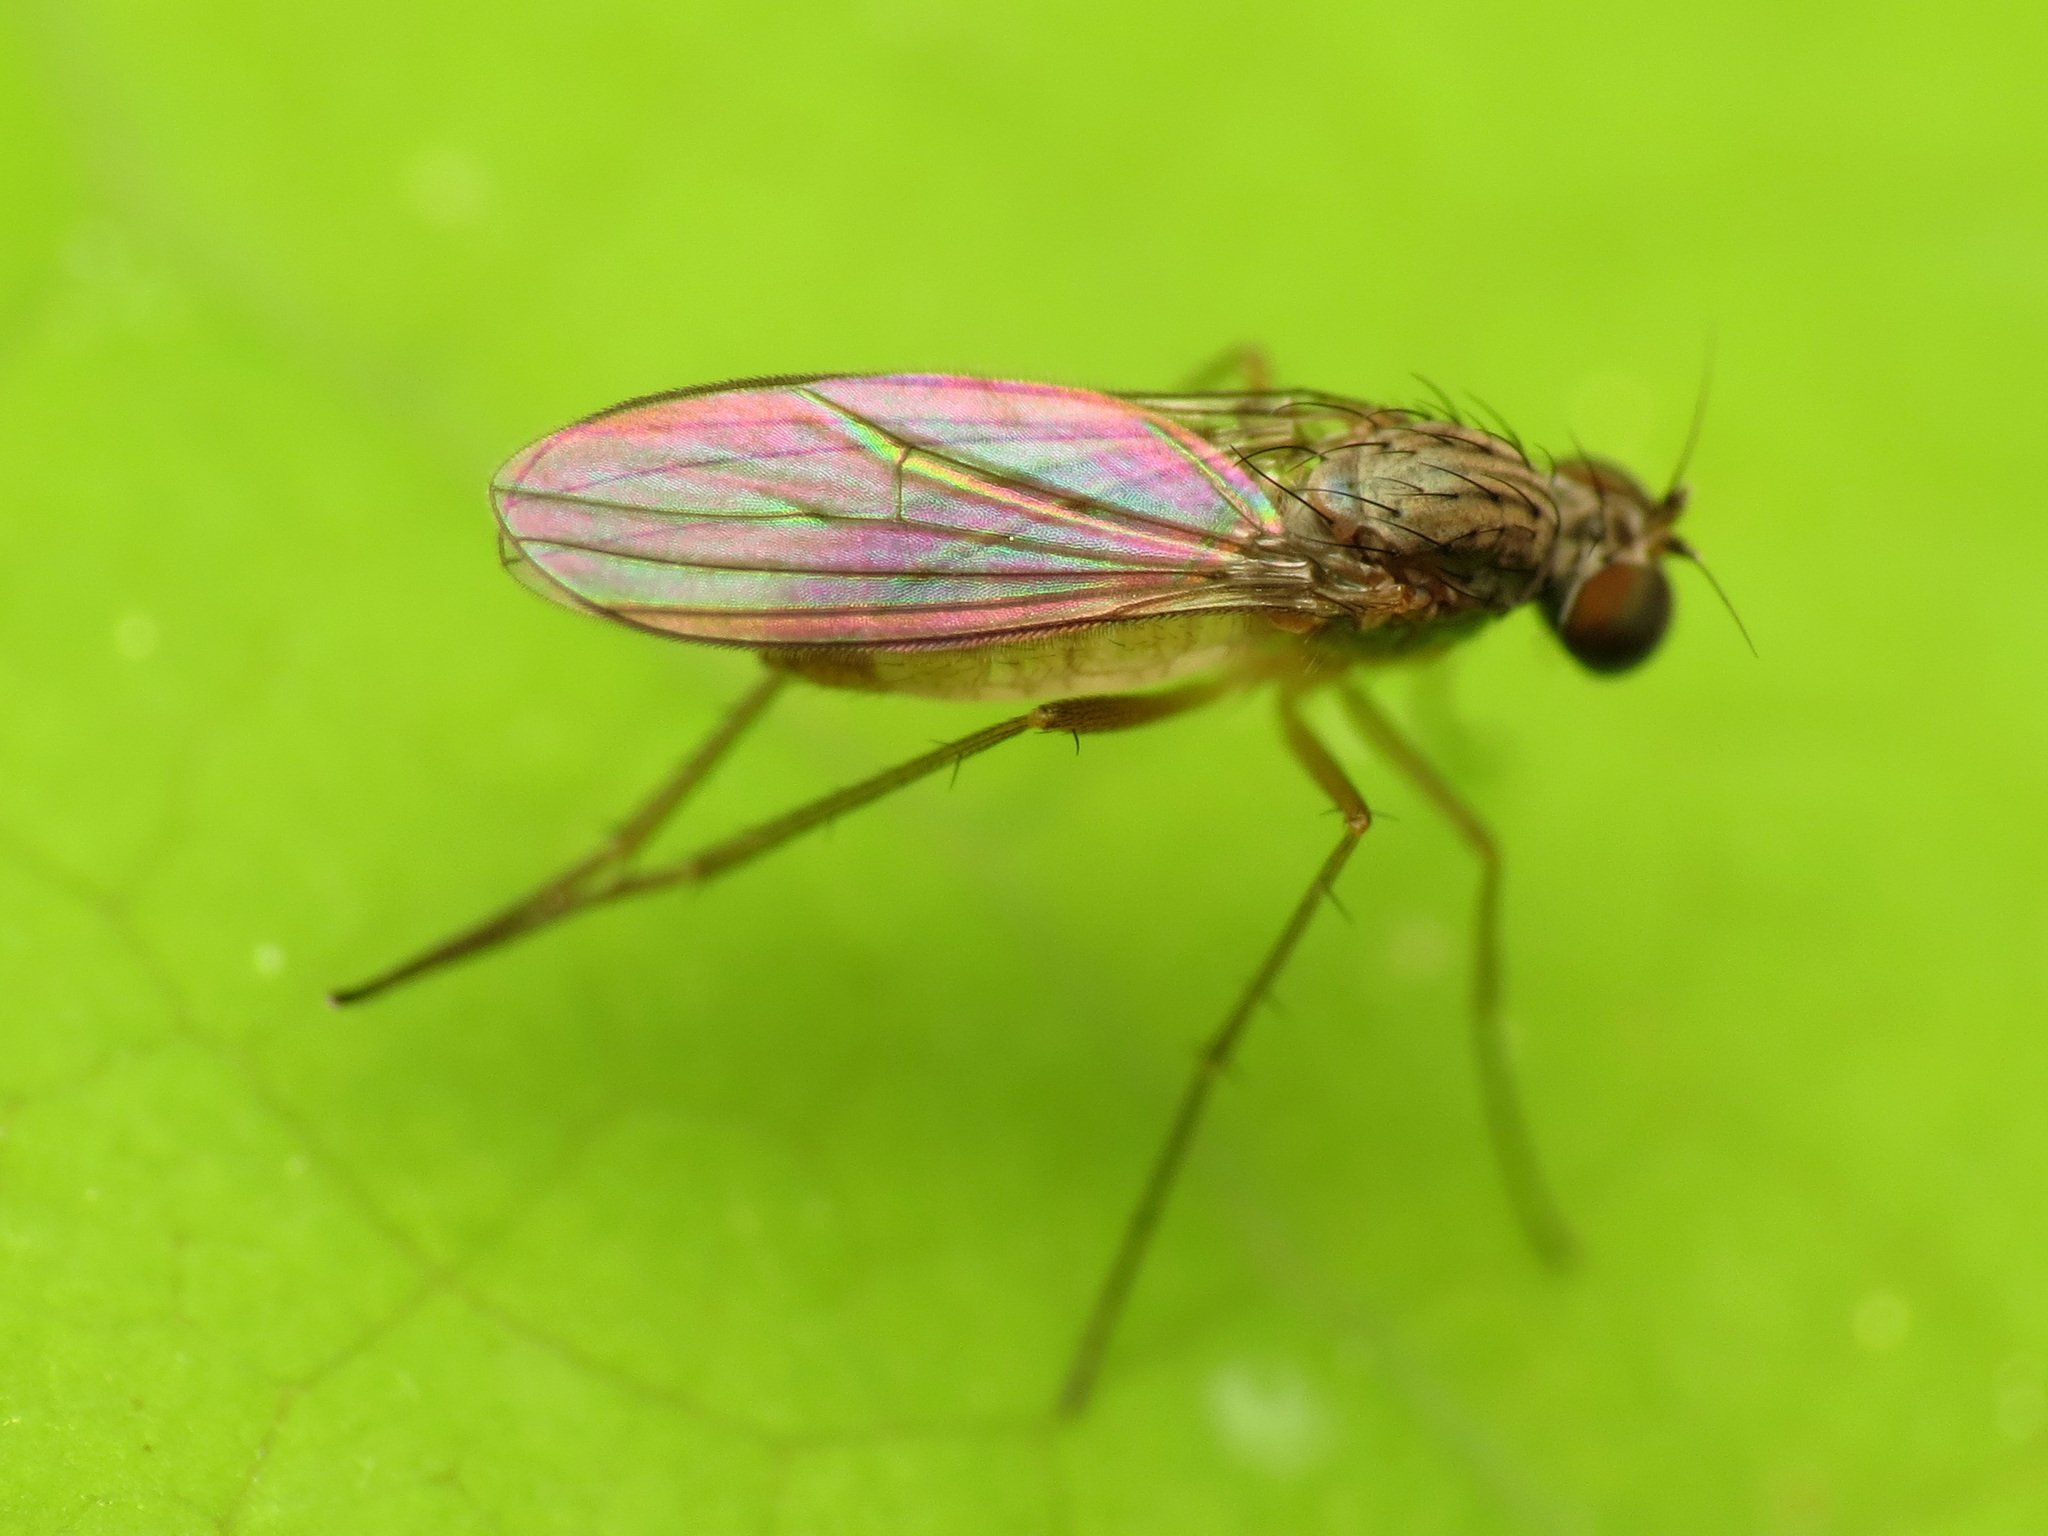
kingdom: Animalia
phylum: Arthropoda
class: Insecta
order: Diptera
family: Dolichopodidae
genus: Sympycnus
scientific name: Sympycnus lineatus
